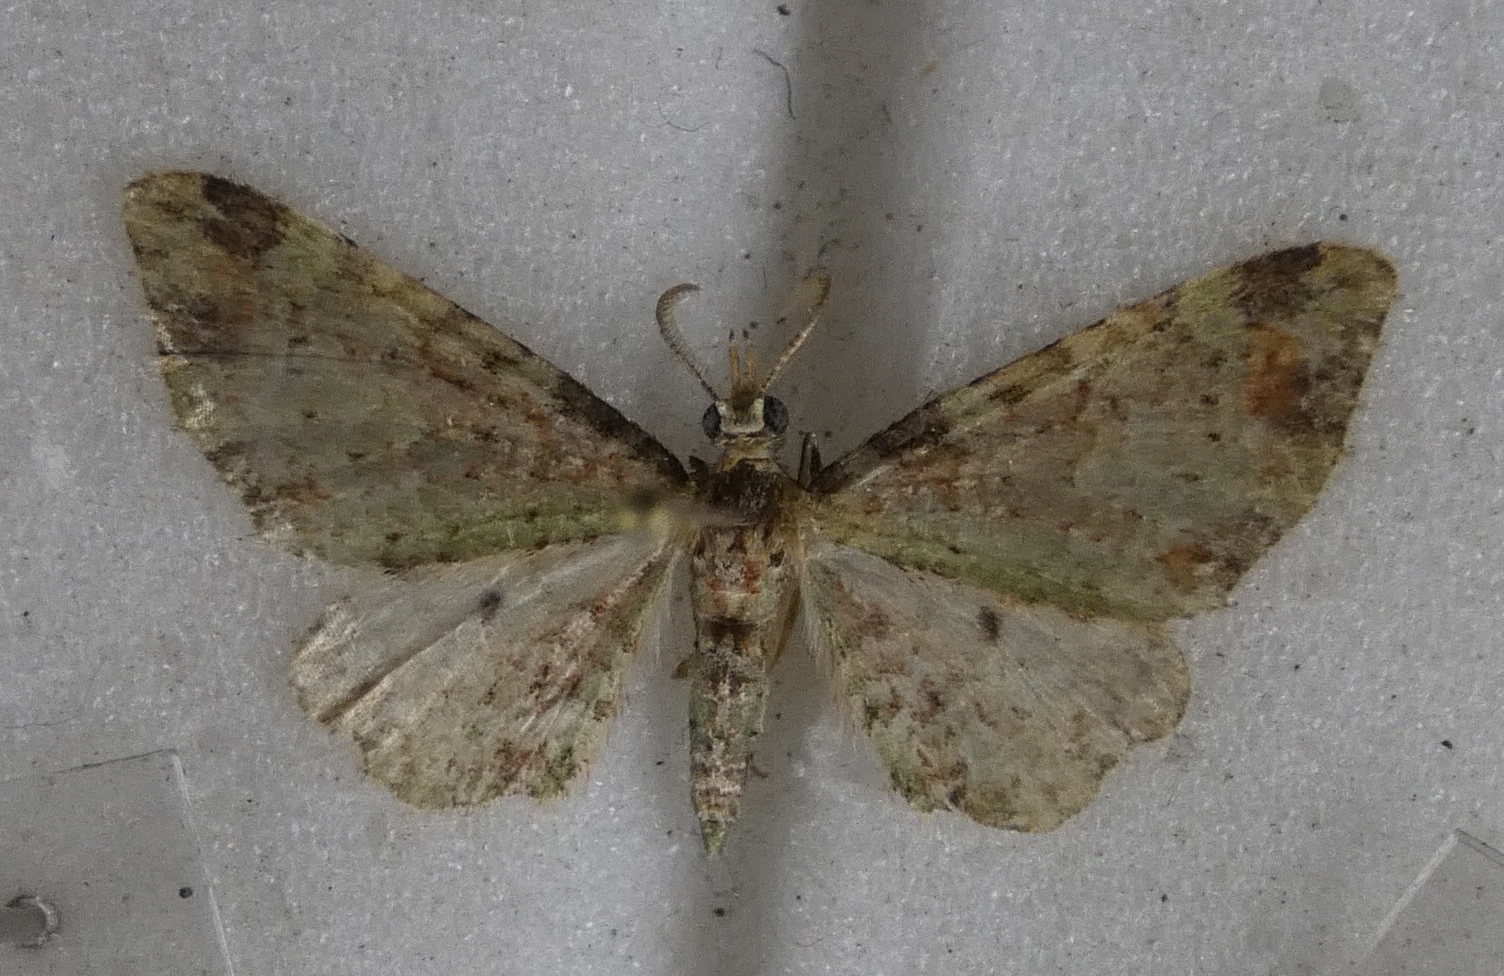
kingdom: Animalia
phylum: Arthropoda
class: Insecta
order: Lepidoptera
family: Geometridae
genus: Pasiphila
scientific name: Pasiphila plinthina
